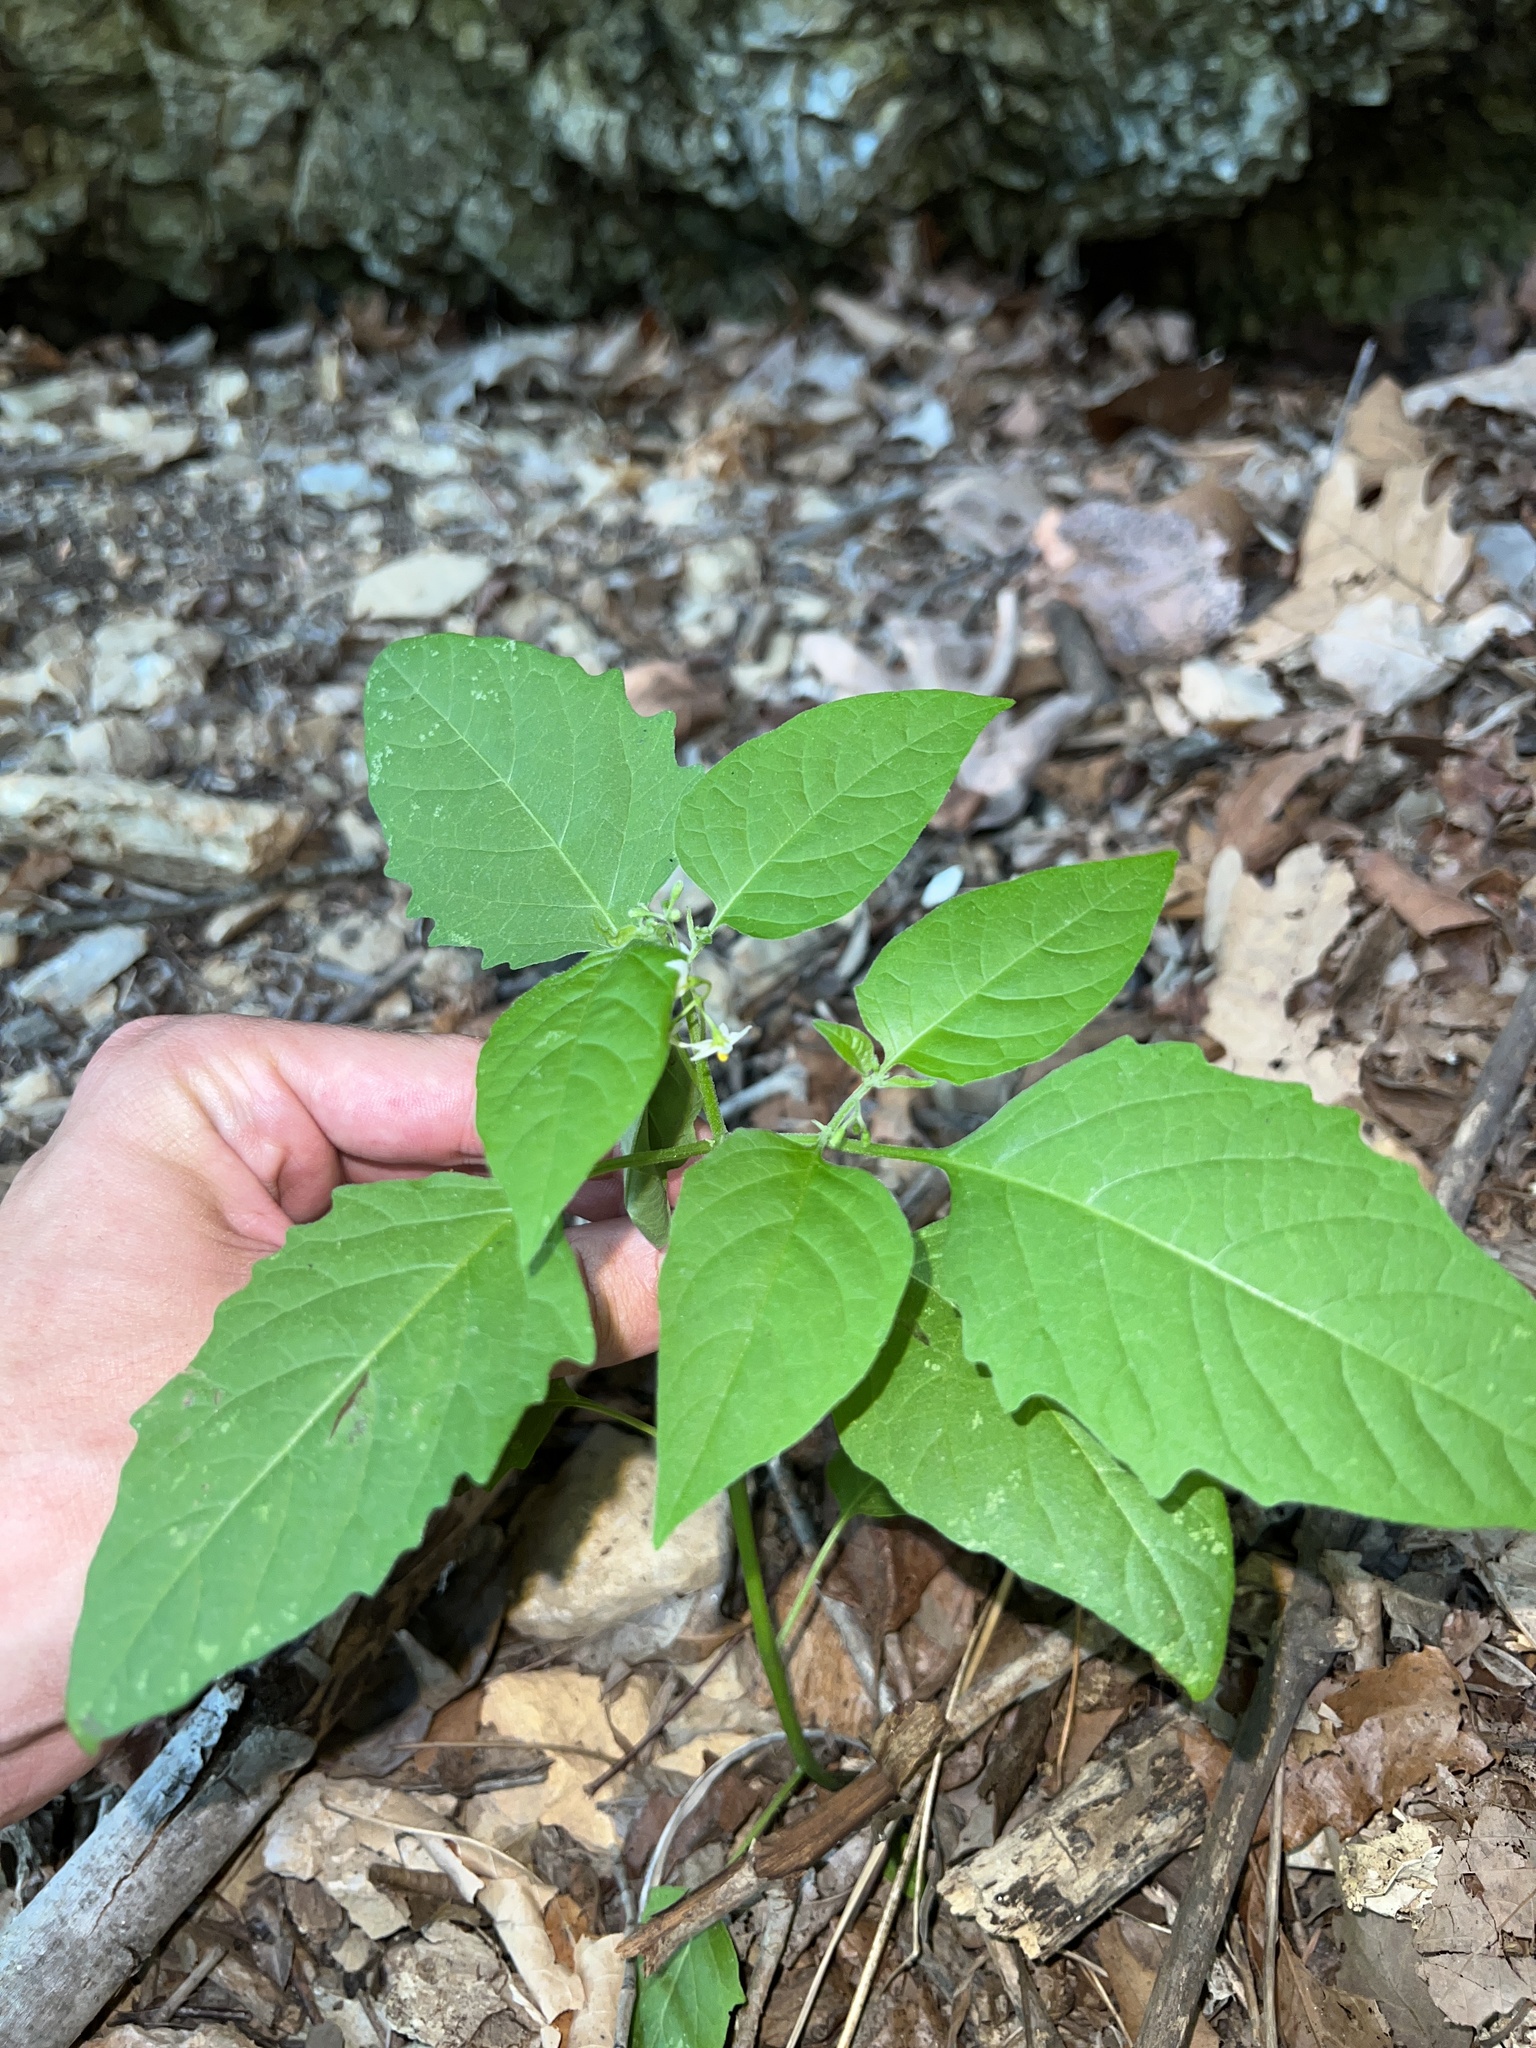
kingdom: Plantae
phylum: Tracheophyta
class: Magnoliopsida
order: Solanales
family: Solanaceae
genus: Solanum
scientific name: Solanum emulans
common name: Eastern black nightshade
